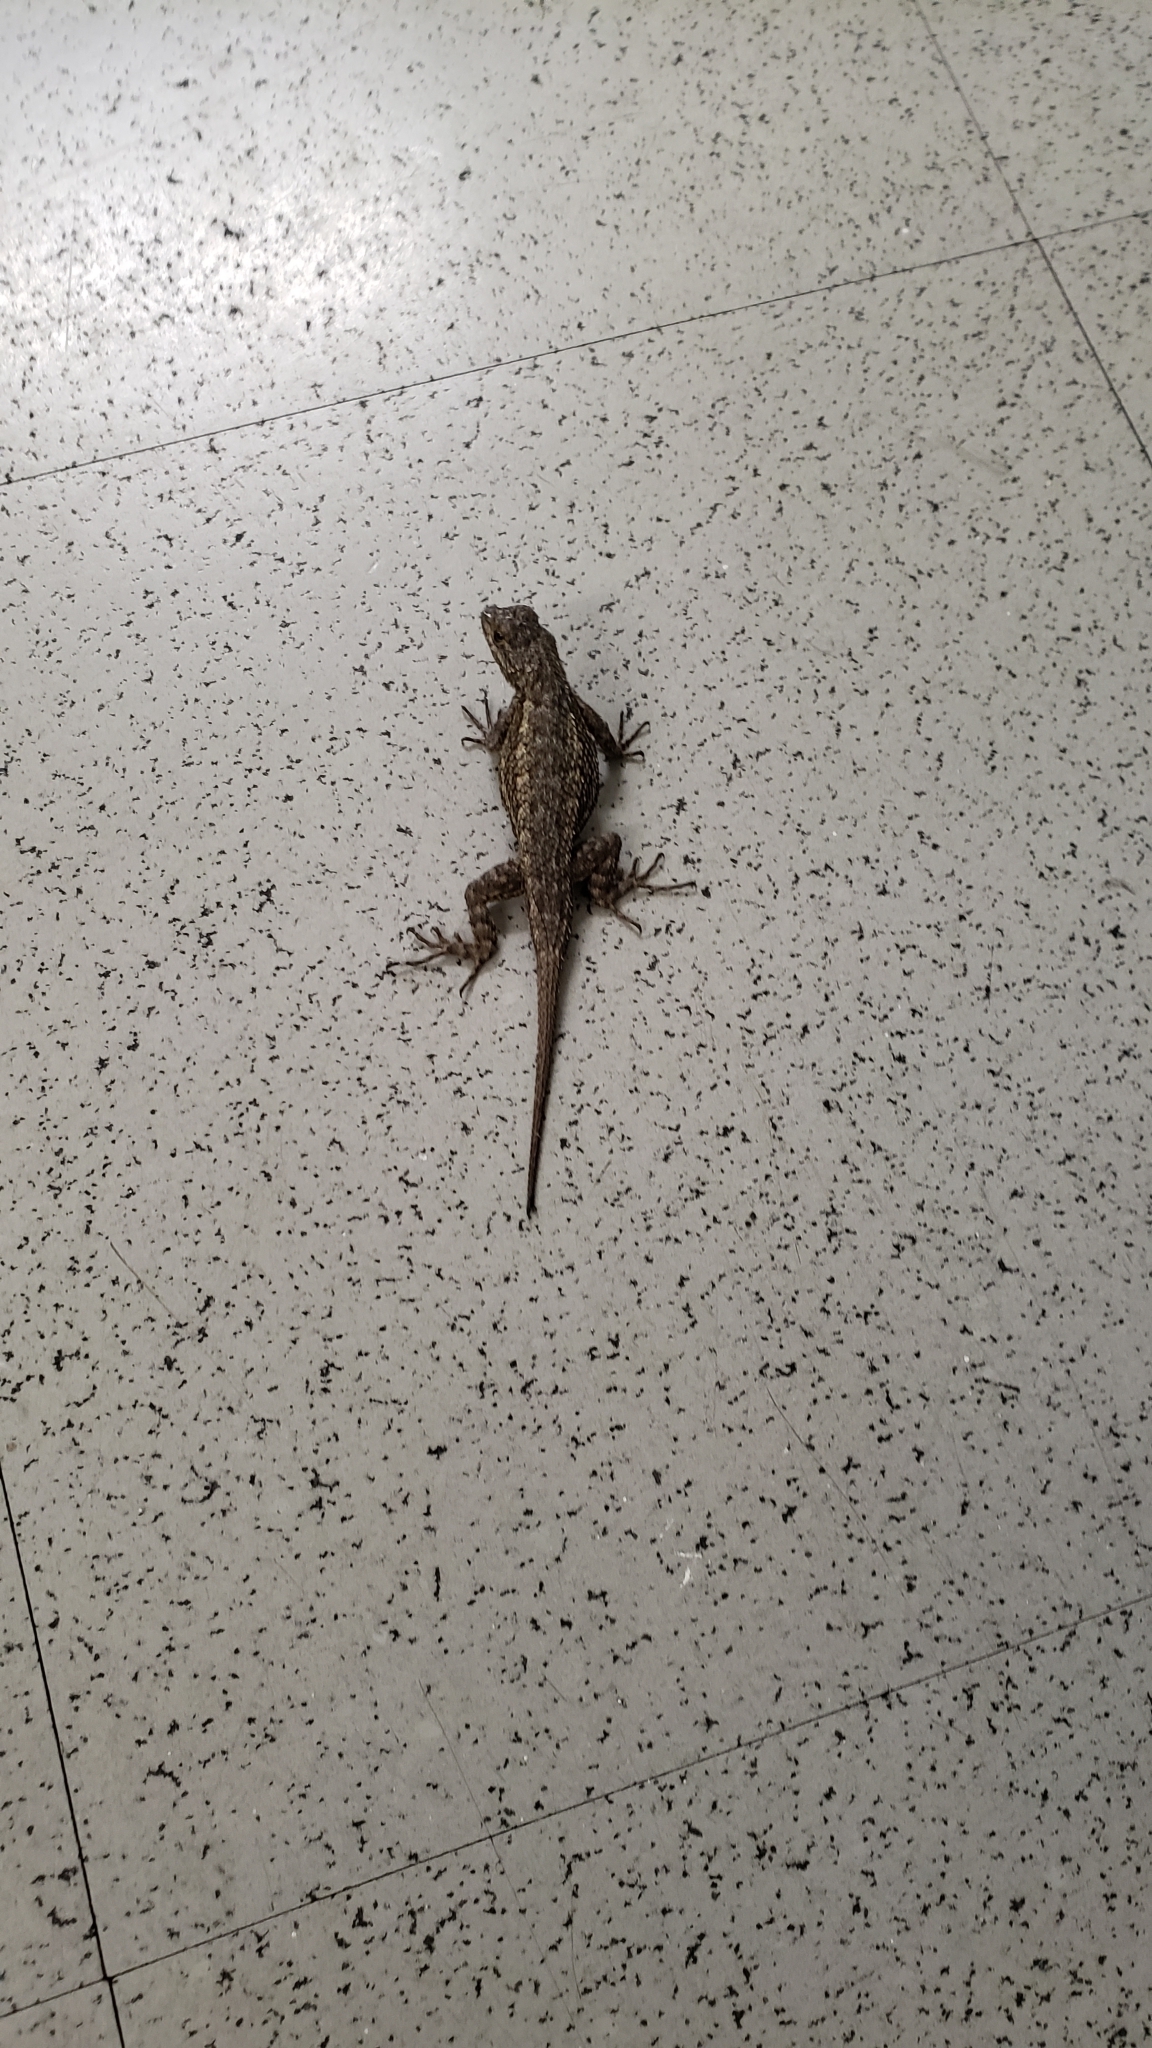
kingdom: Animalia
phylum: Chordata
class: Squamata
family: Phrynosomatidae
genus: Sceloporus
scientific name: Sceloporus occidentalis
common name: Western fence lizard
